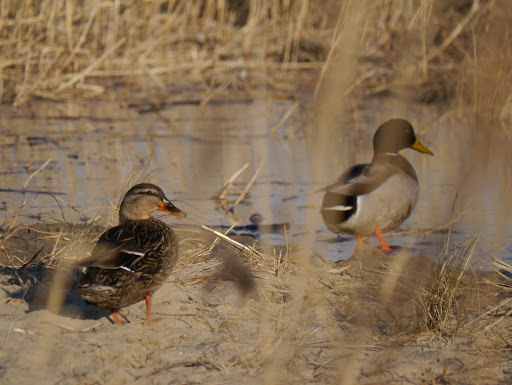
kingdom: Animalia
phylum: Chordata
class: Aves
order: Anseriformes
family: Anatidae
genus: Anas
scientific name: Anas platyrhynchos
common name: Mallard
